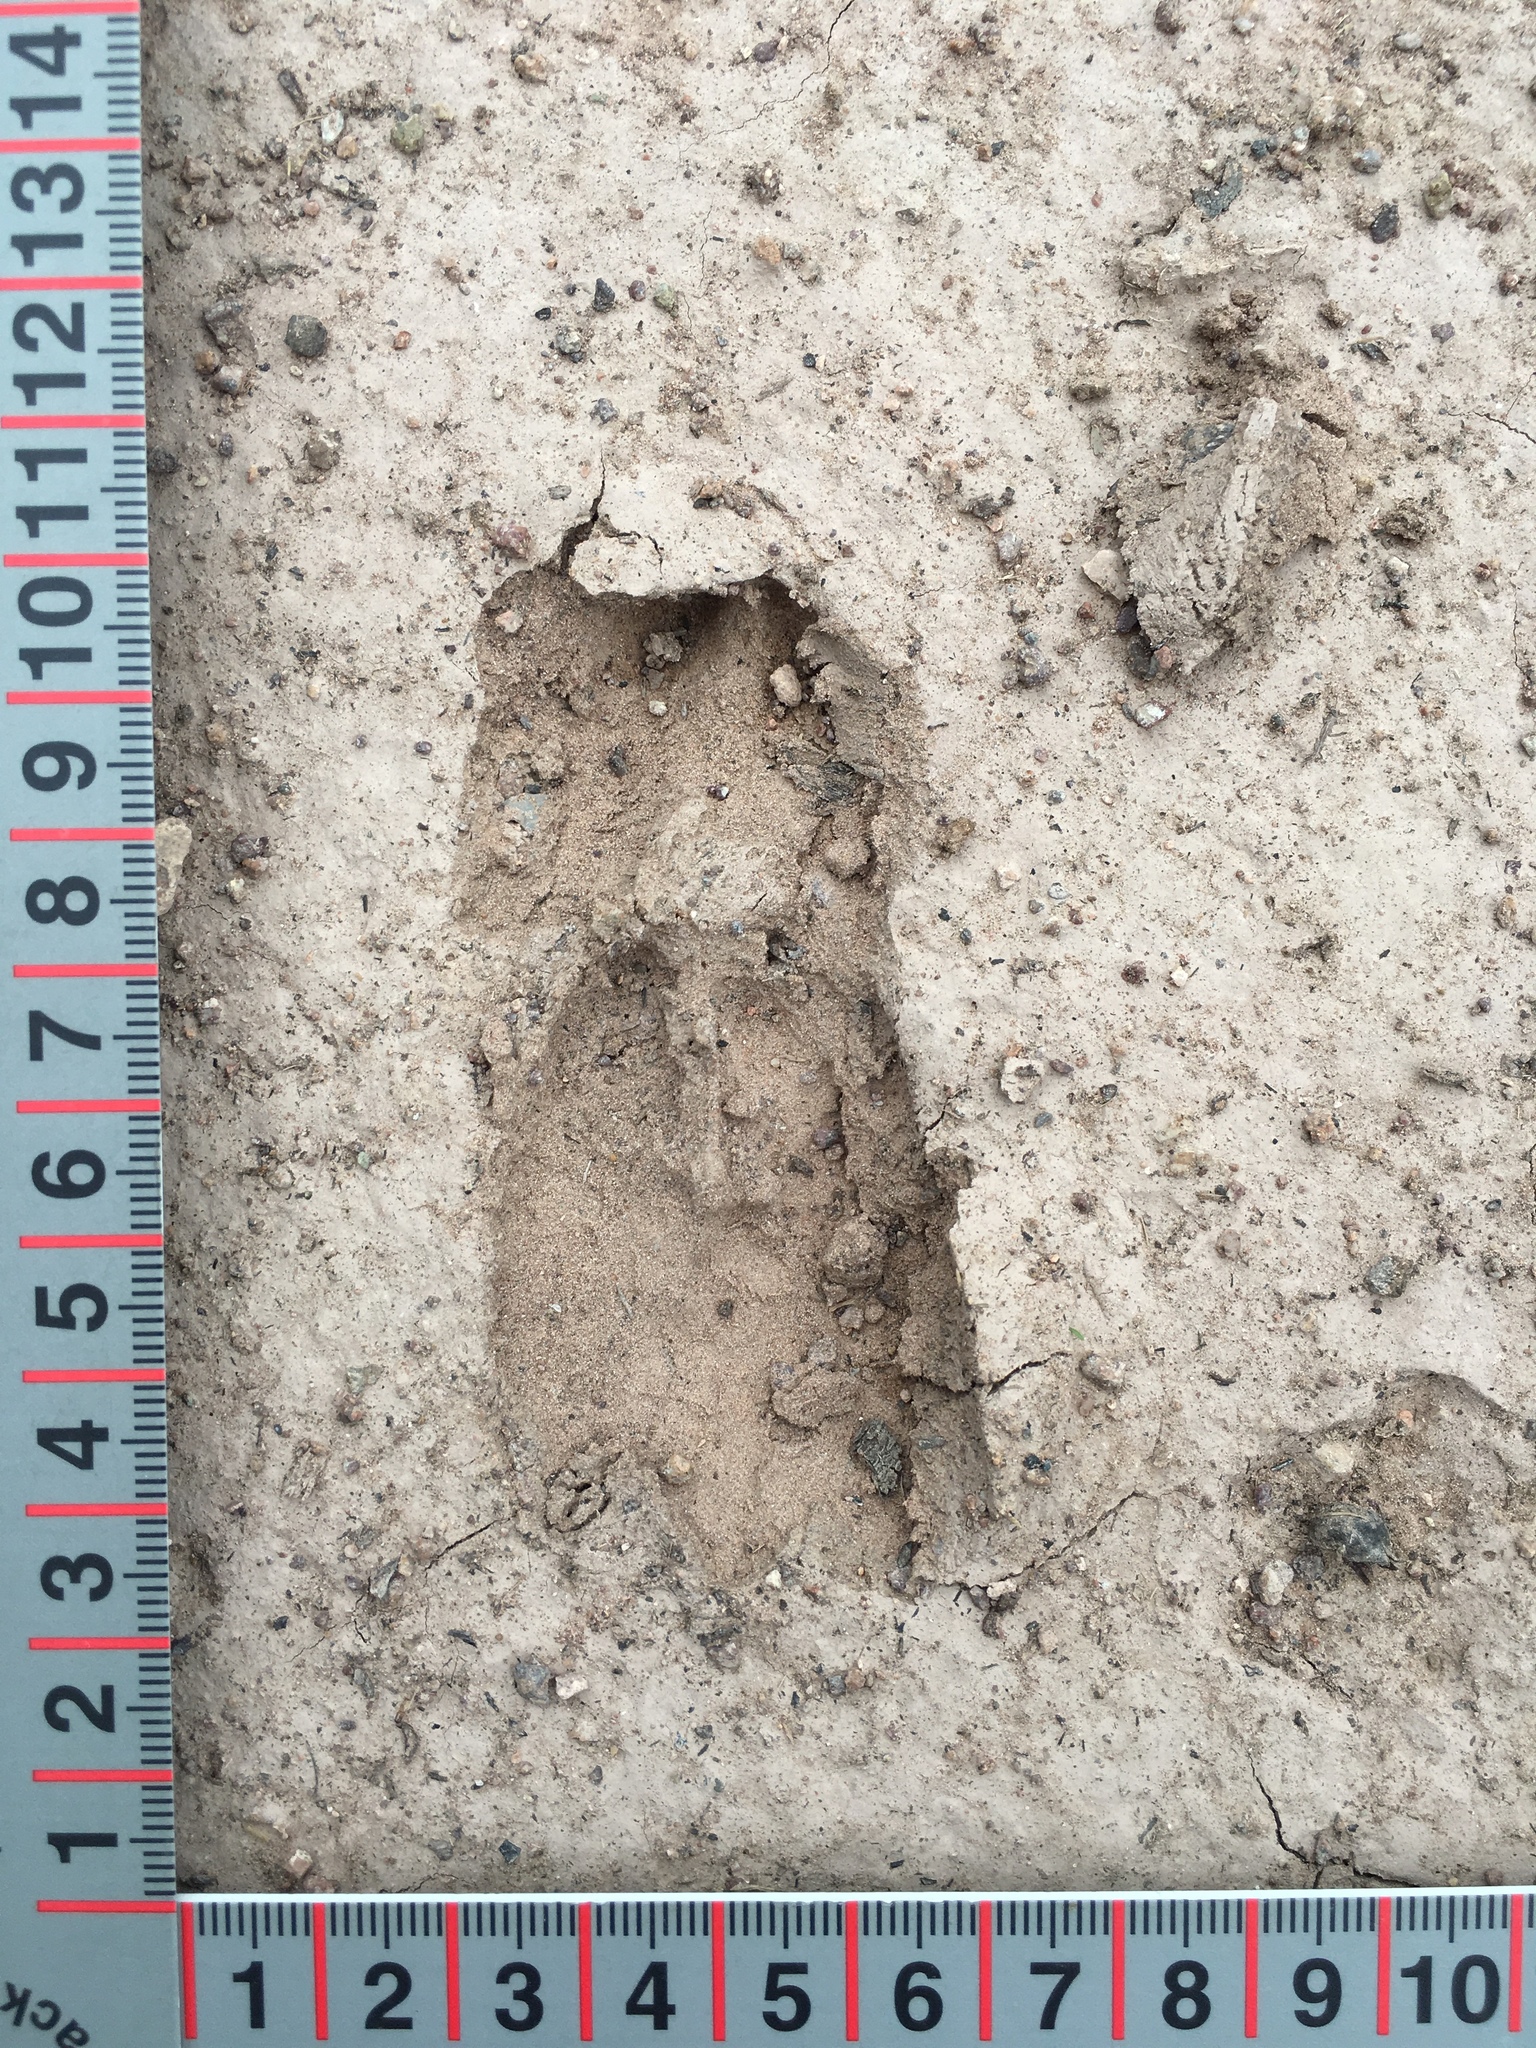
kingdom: Animalia
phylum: Chordata
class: Mammalia
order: Artiodactyla
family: Cervidae
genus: Odocoileus
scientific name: Odocoileus virginianus
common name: White-tailed deer
